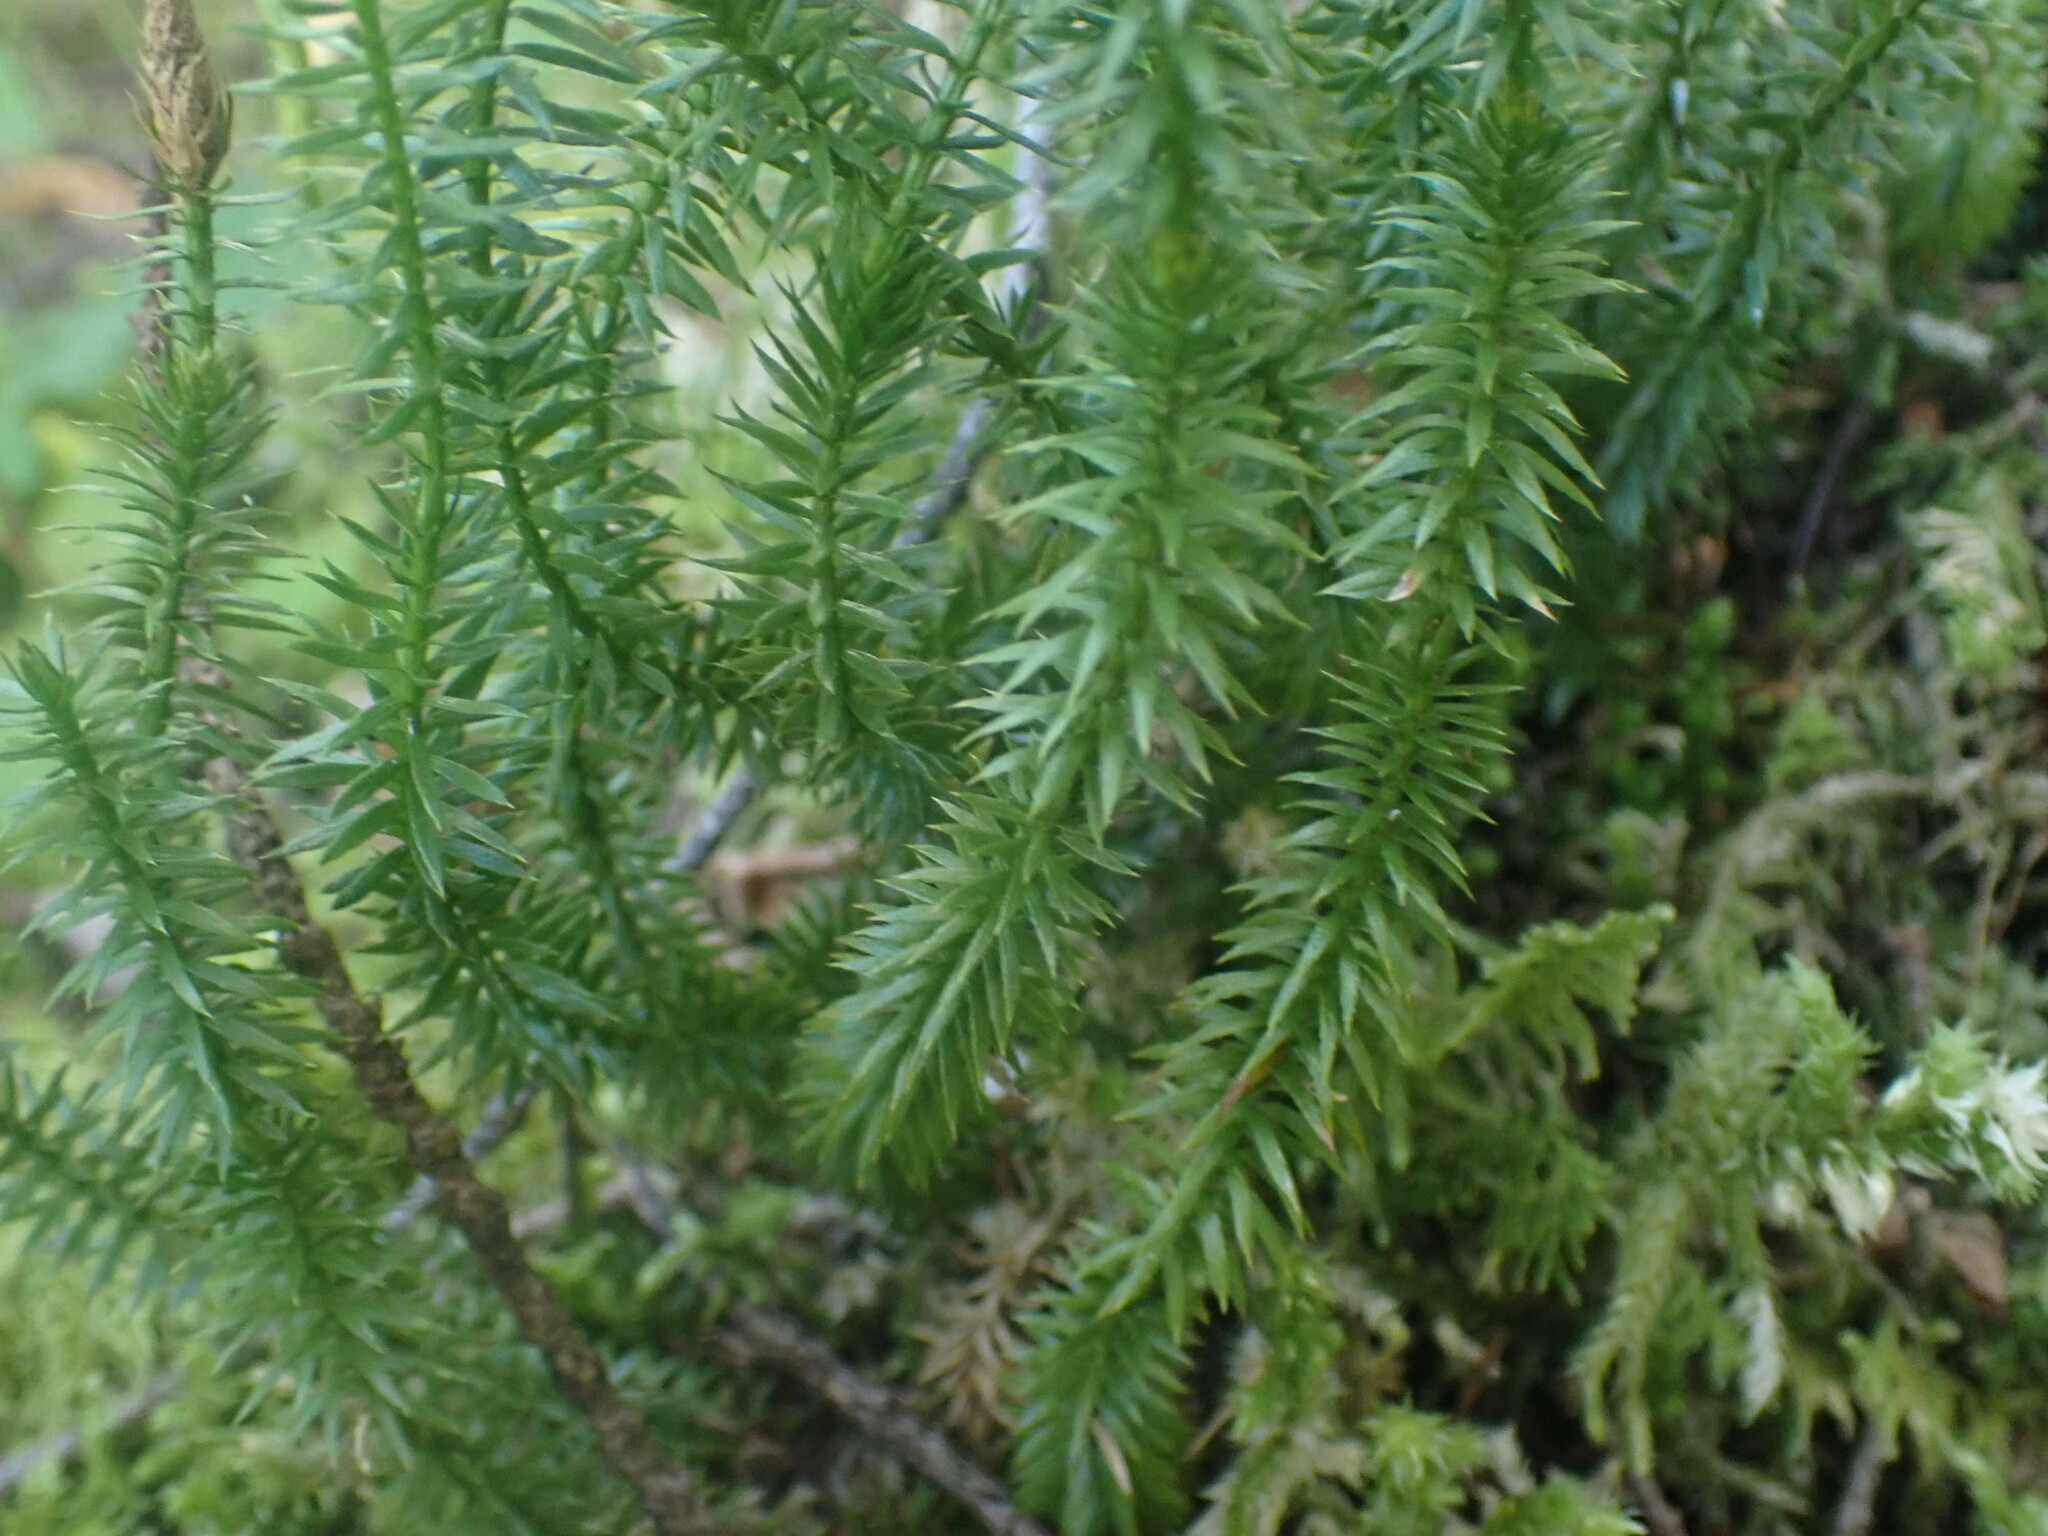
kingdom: Plantae
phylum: Tracheophyta
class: Lycopodiopsida
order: Lycopodiales
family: Lycopodiaceae
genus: Spinulum
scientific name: Spinulum annotinum
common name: Interrupted club-moss
